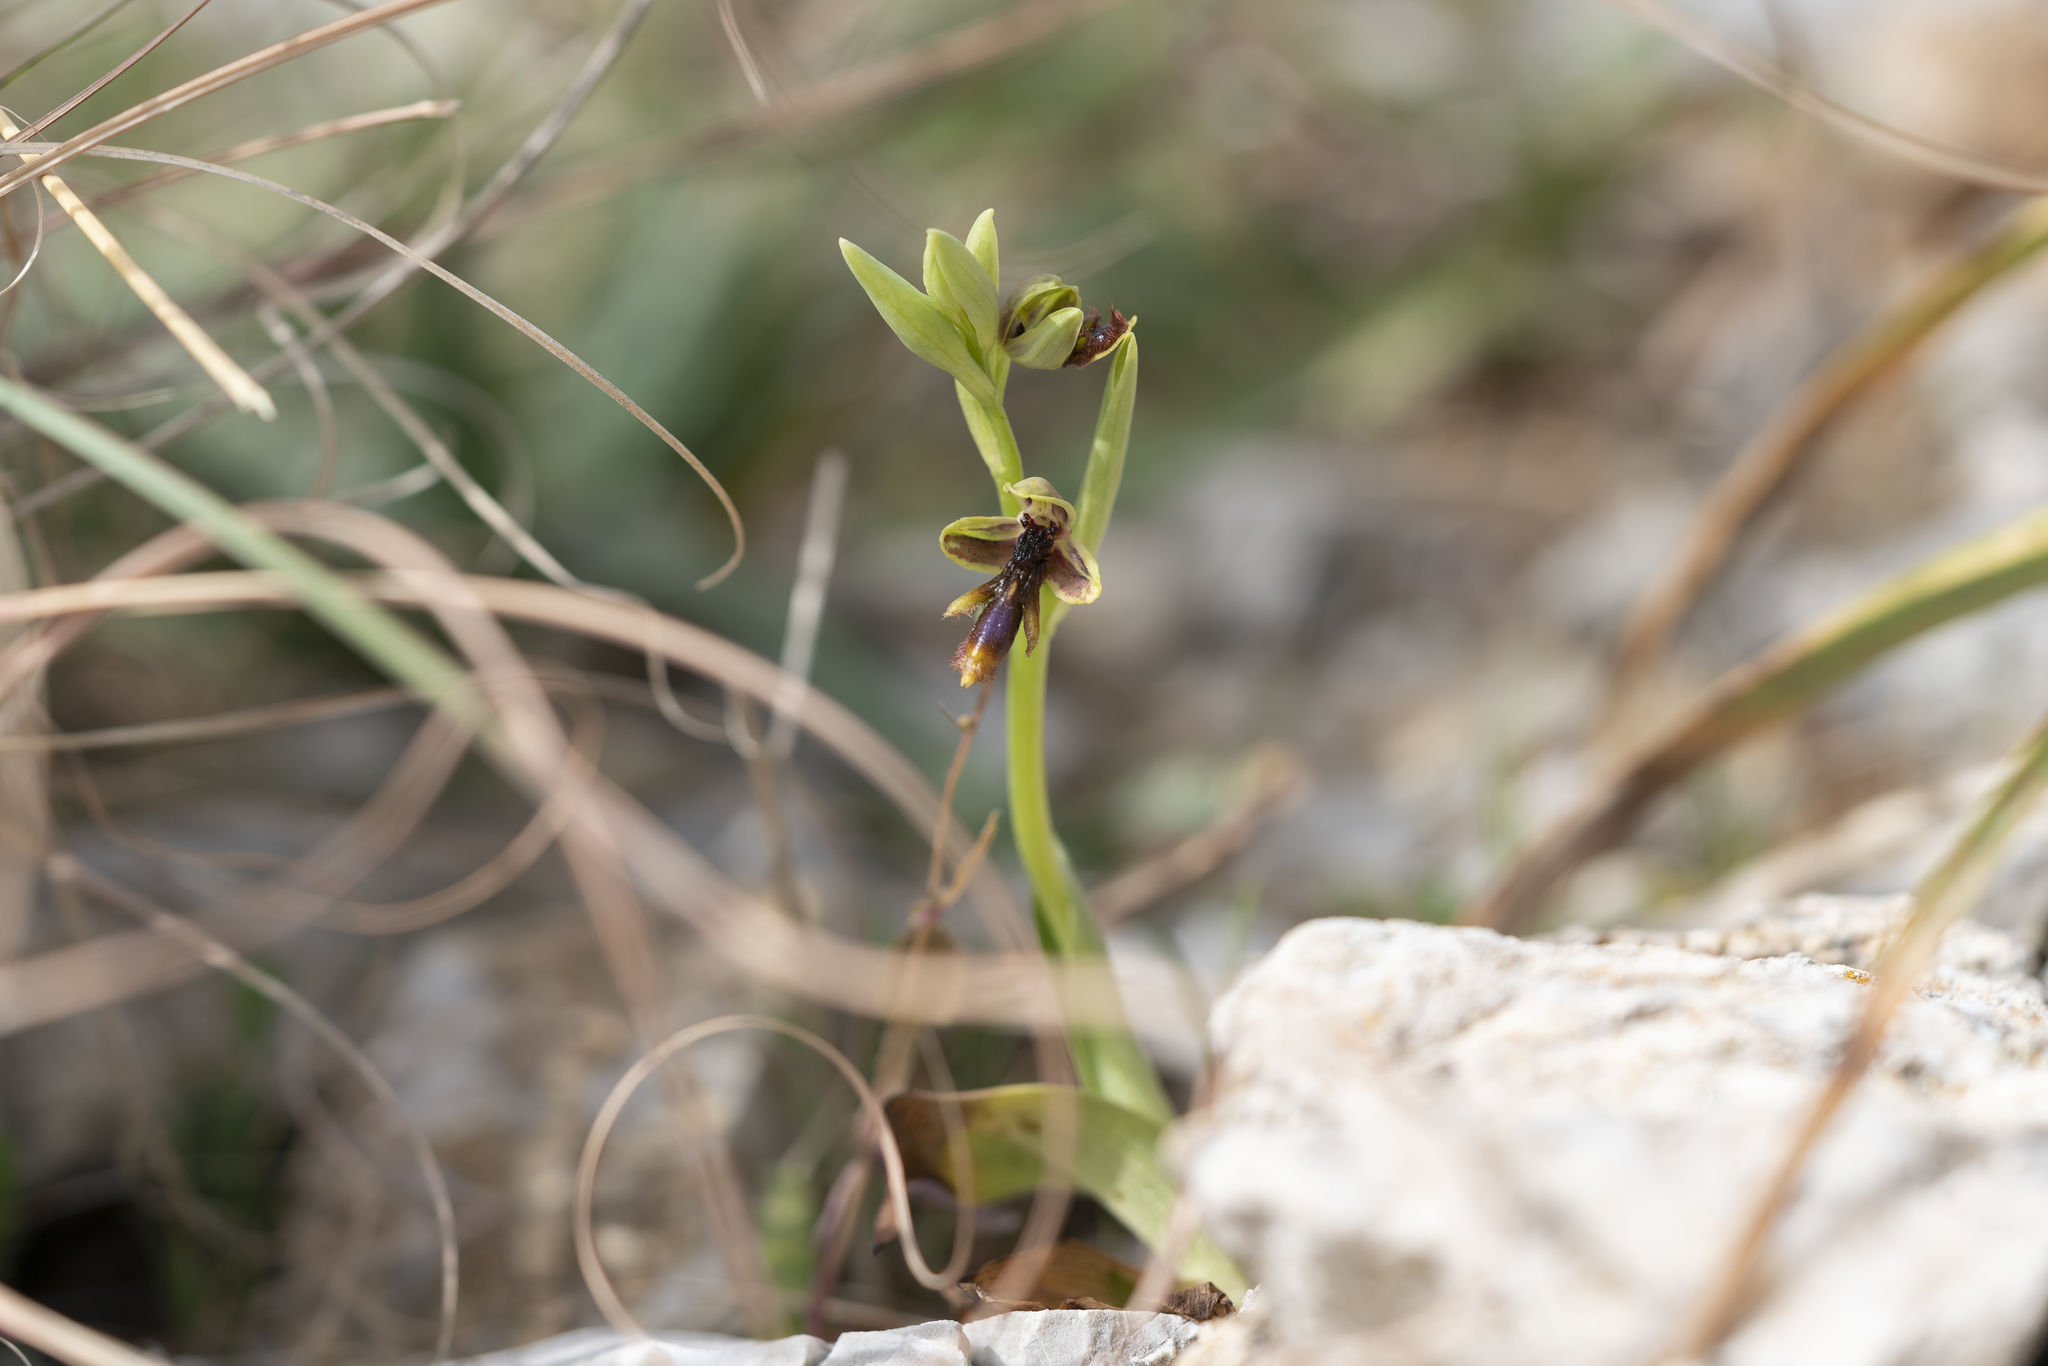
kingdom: Plantae
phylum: Tracheophyta
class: Liliopsida
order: Asparagales
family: Orchidaceae
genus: Ophrys
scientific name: Ophrys speculum
